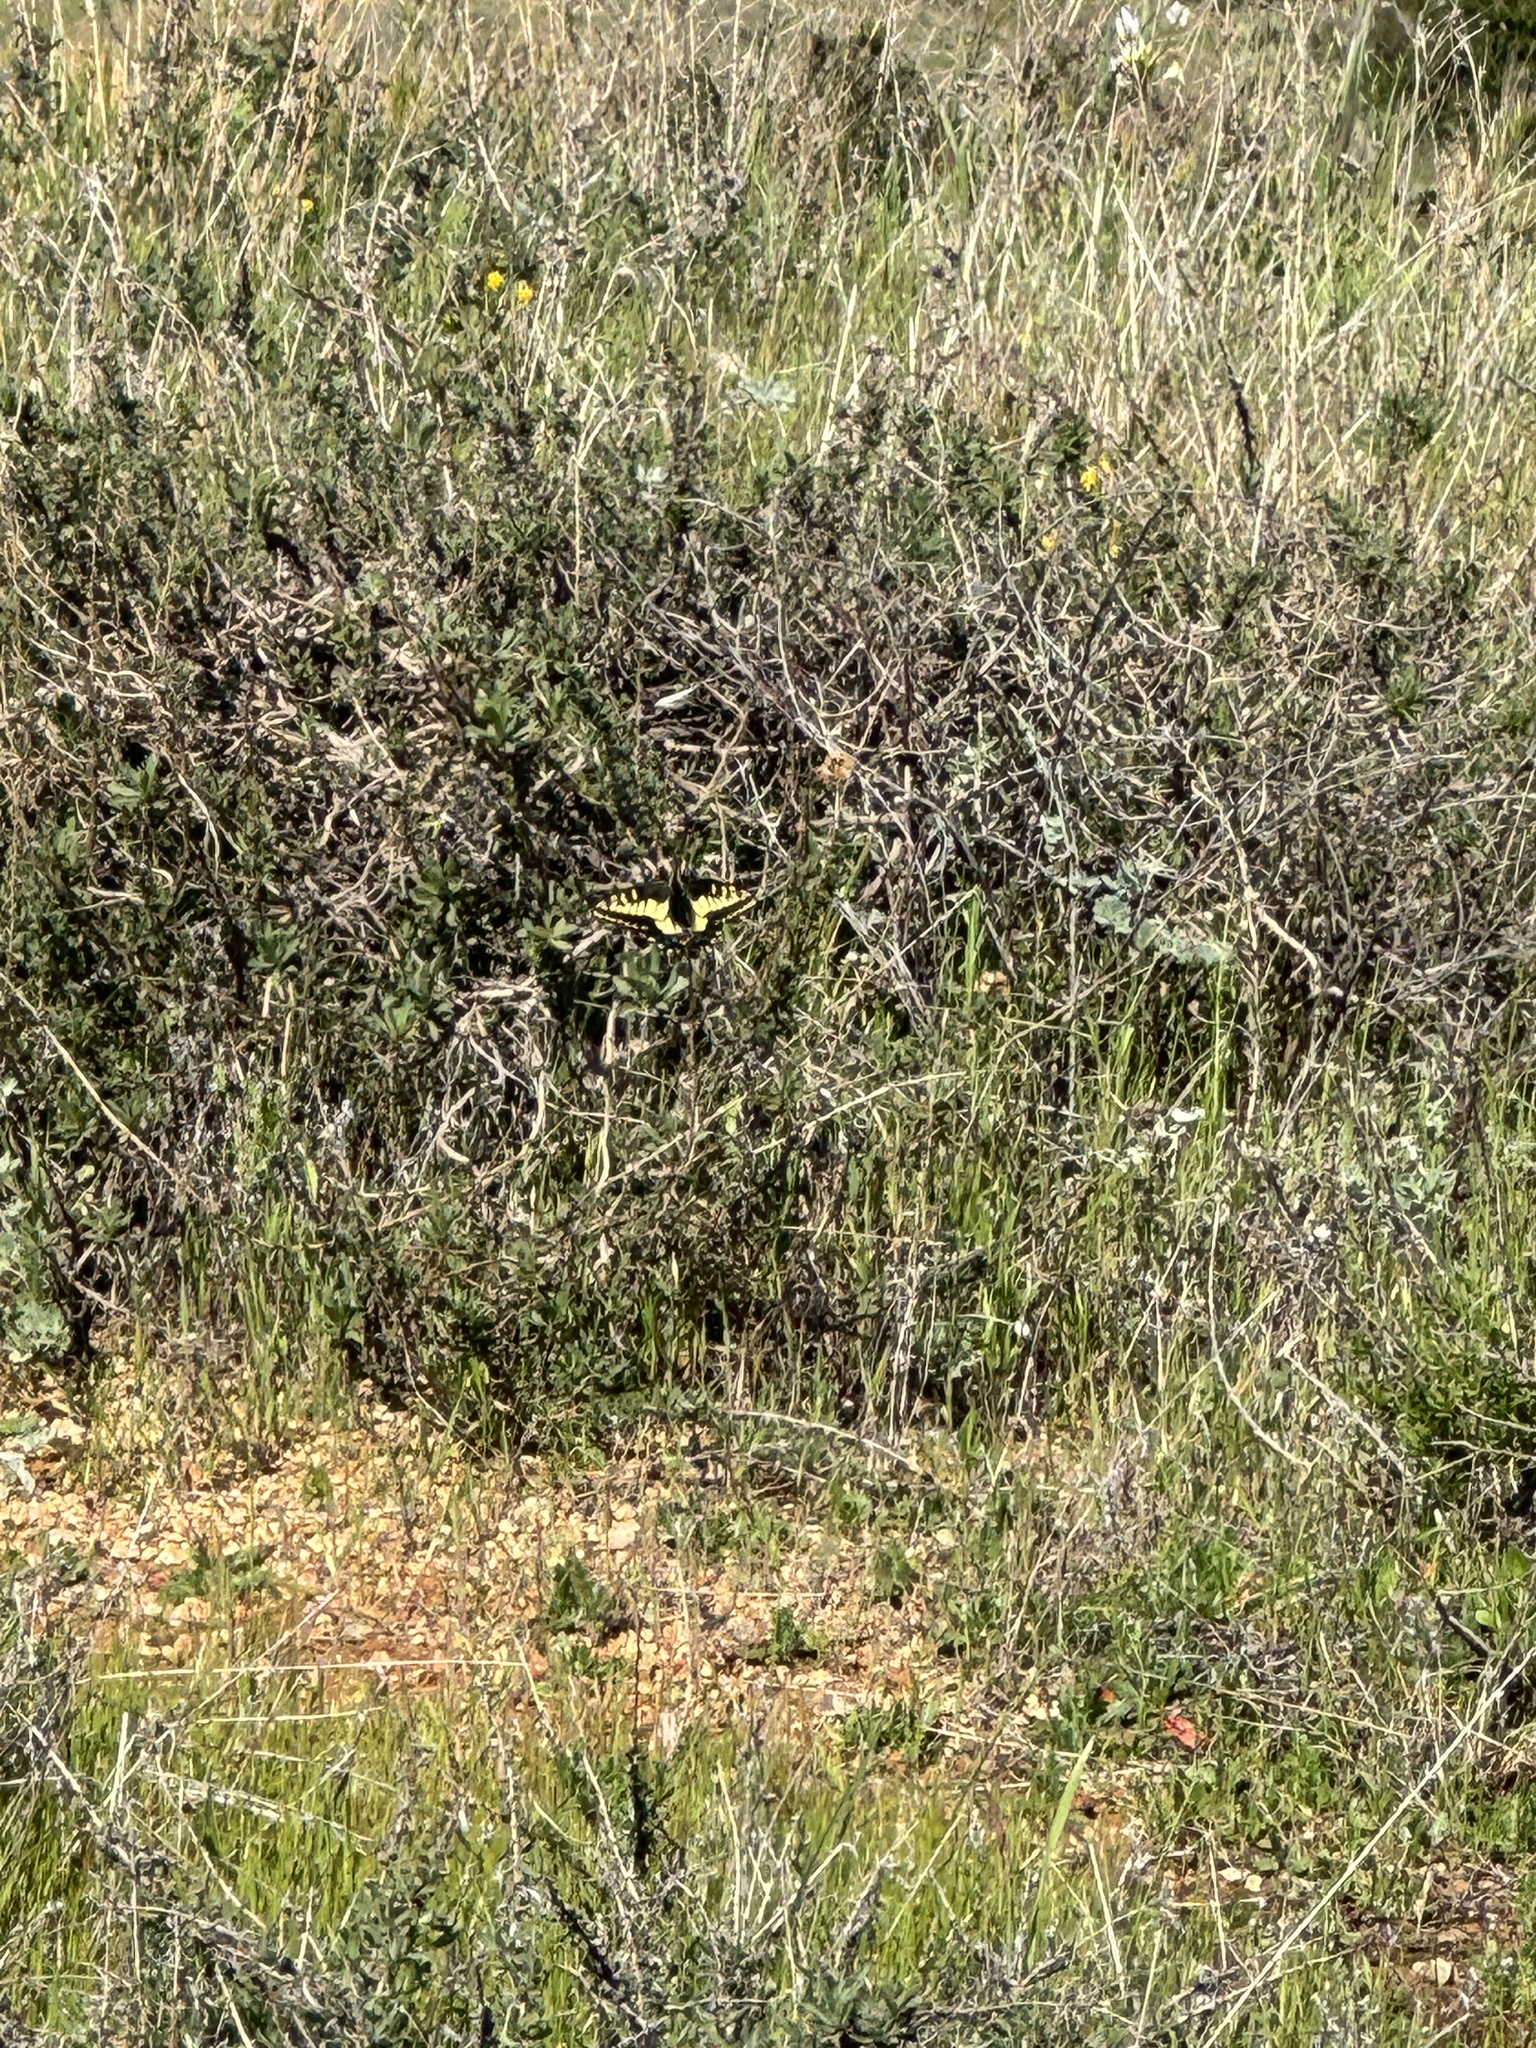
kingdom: Animalia
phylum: Arthropoda
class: Insecta
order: Lepidoptera
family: Papilionidae
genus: Papilio
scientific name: Papilio zelicaon
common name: Anise swallowtail
